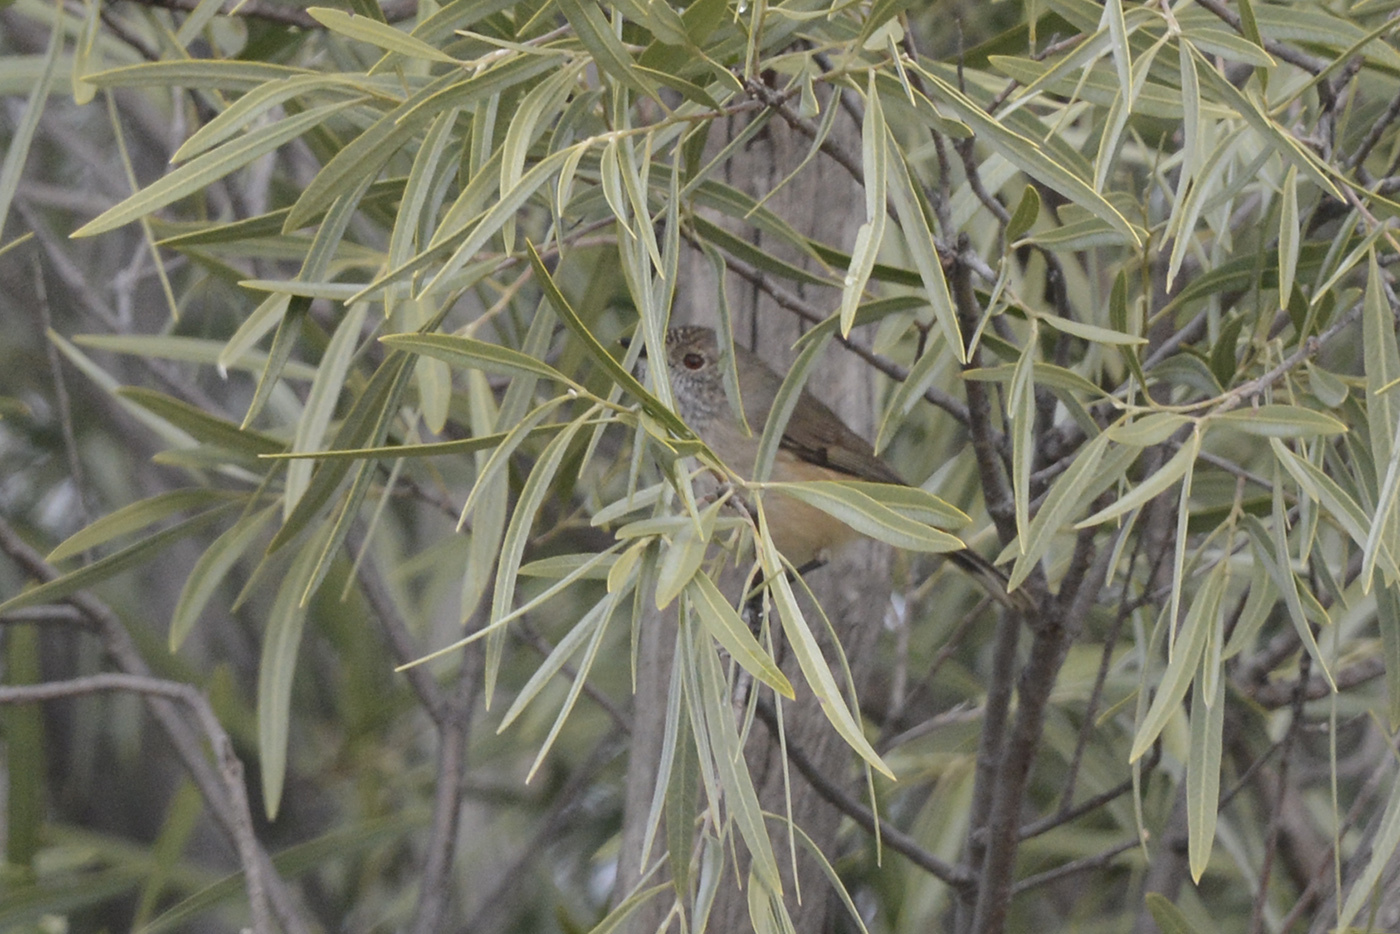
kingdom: Animalia
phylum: Chordata
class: Aves
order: Passeriformes
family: Acanthizidae
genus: Acanthiza
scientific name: Acanthiza apicalis
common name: Inland thornbill
